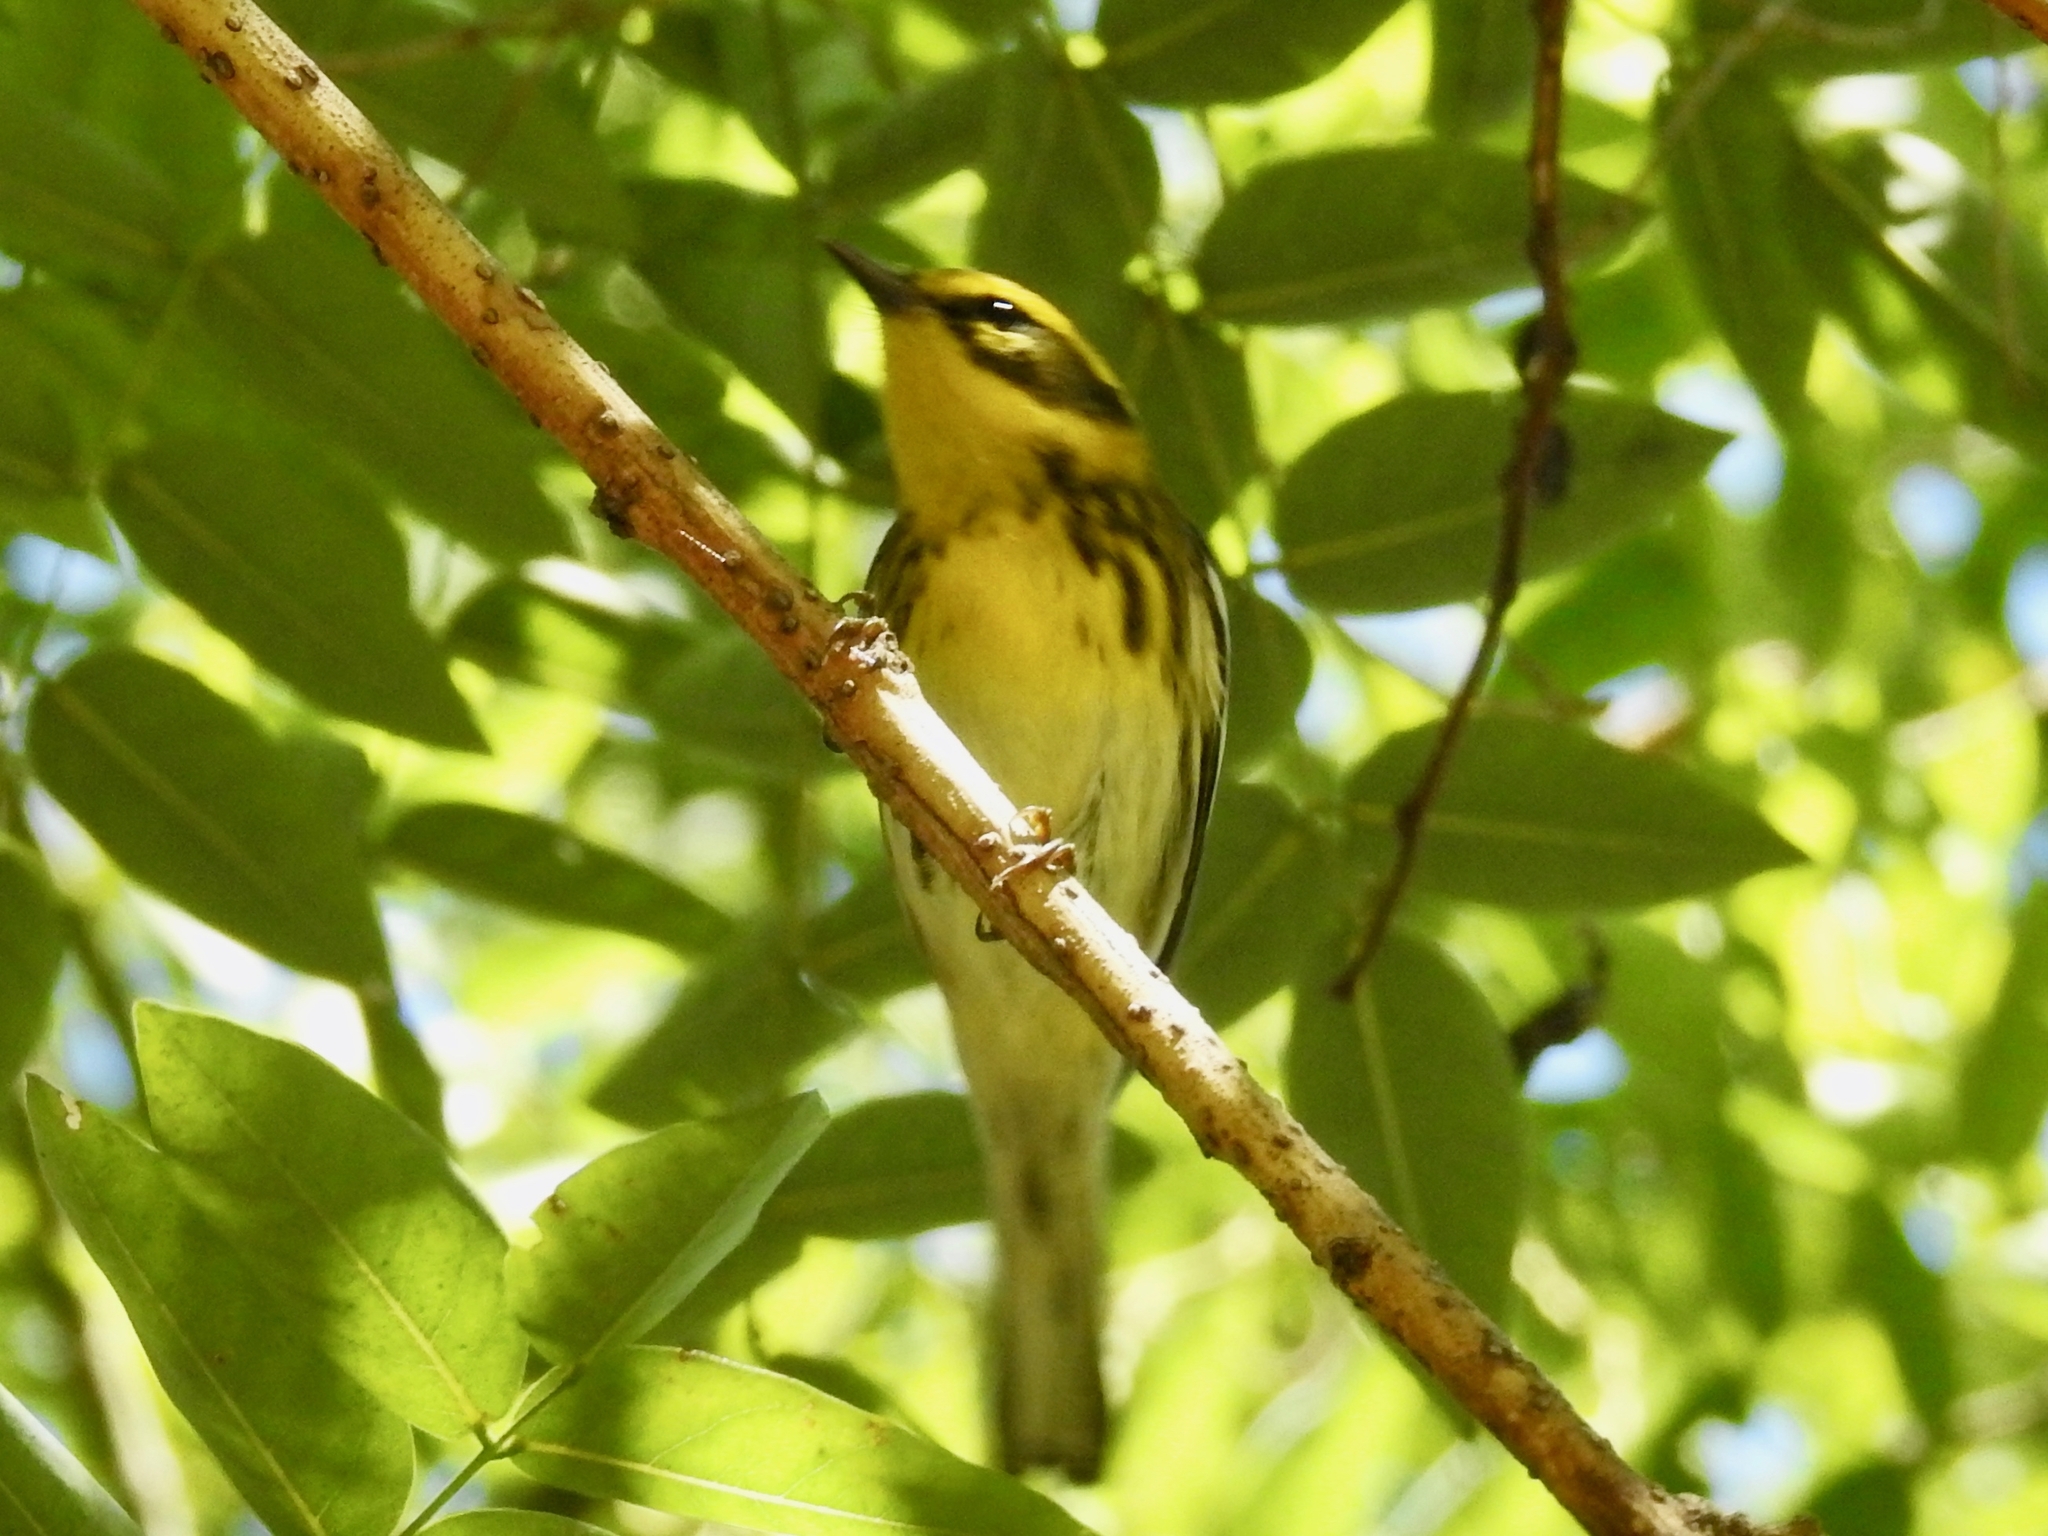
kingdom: Animalia
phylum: Chordata
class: Aves
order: Passeriformes
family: Parulidae
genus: Setophaga
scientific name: Setophaga townsendi
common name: Townsend's warbler
